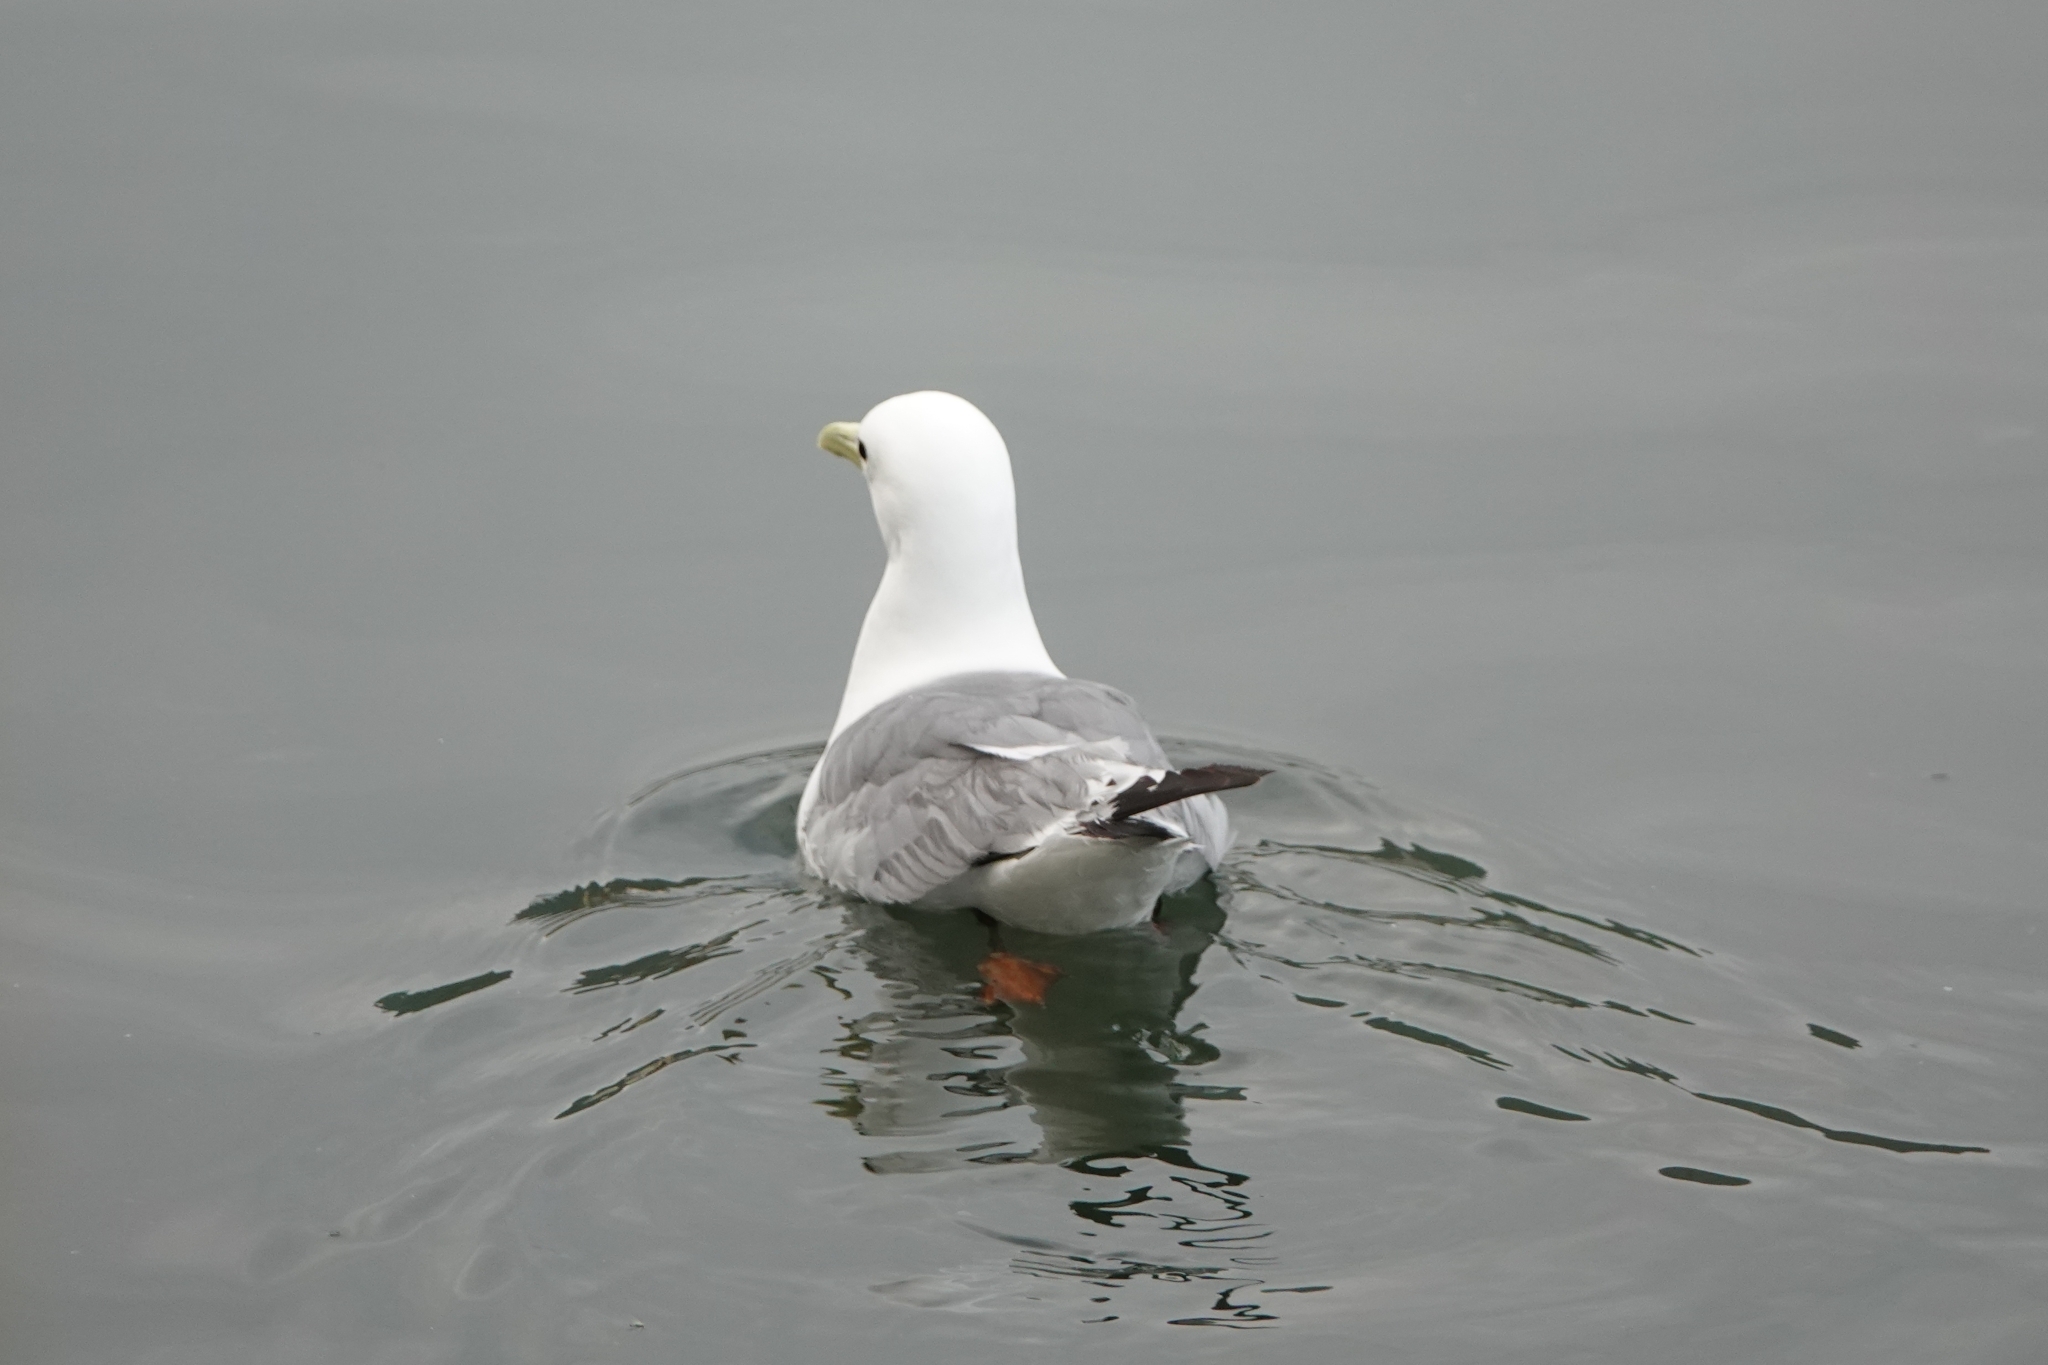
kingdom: Animalia
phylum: Chordata
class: Aves
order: Charadriiformes
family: Laridae
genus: Rissa
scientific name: Rissa tridactyla
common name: Black-legged kittiwake
